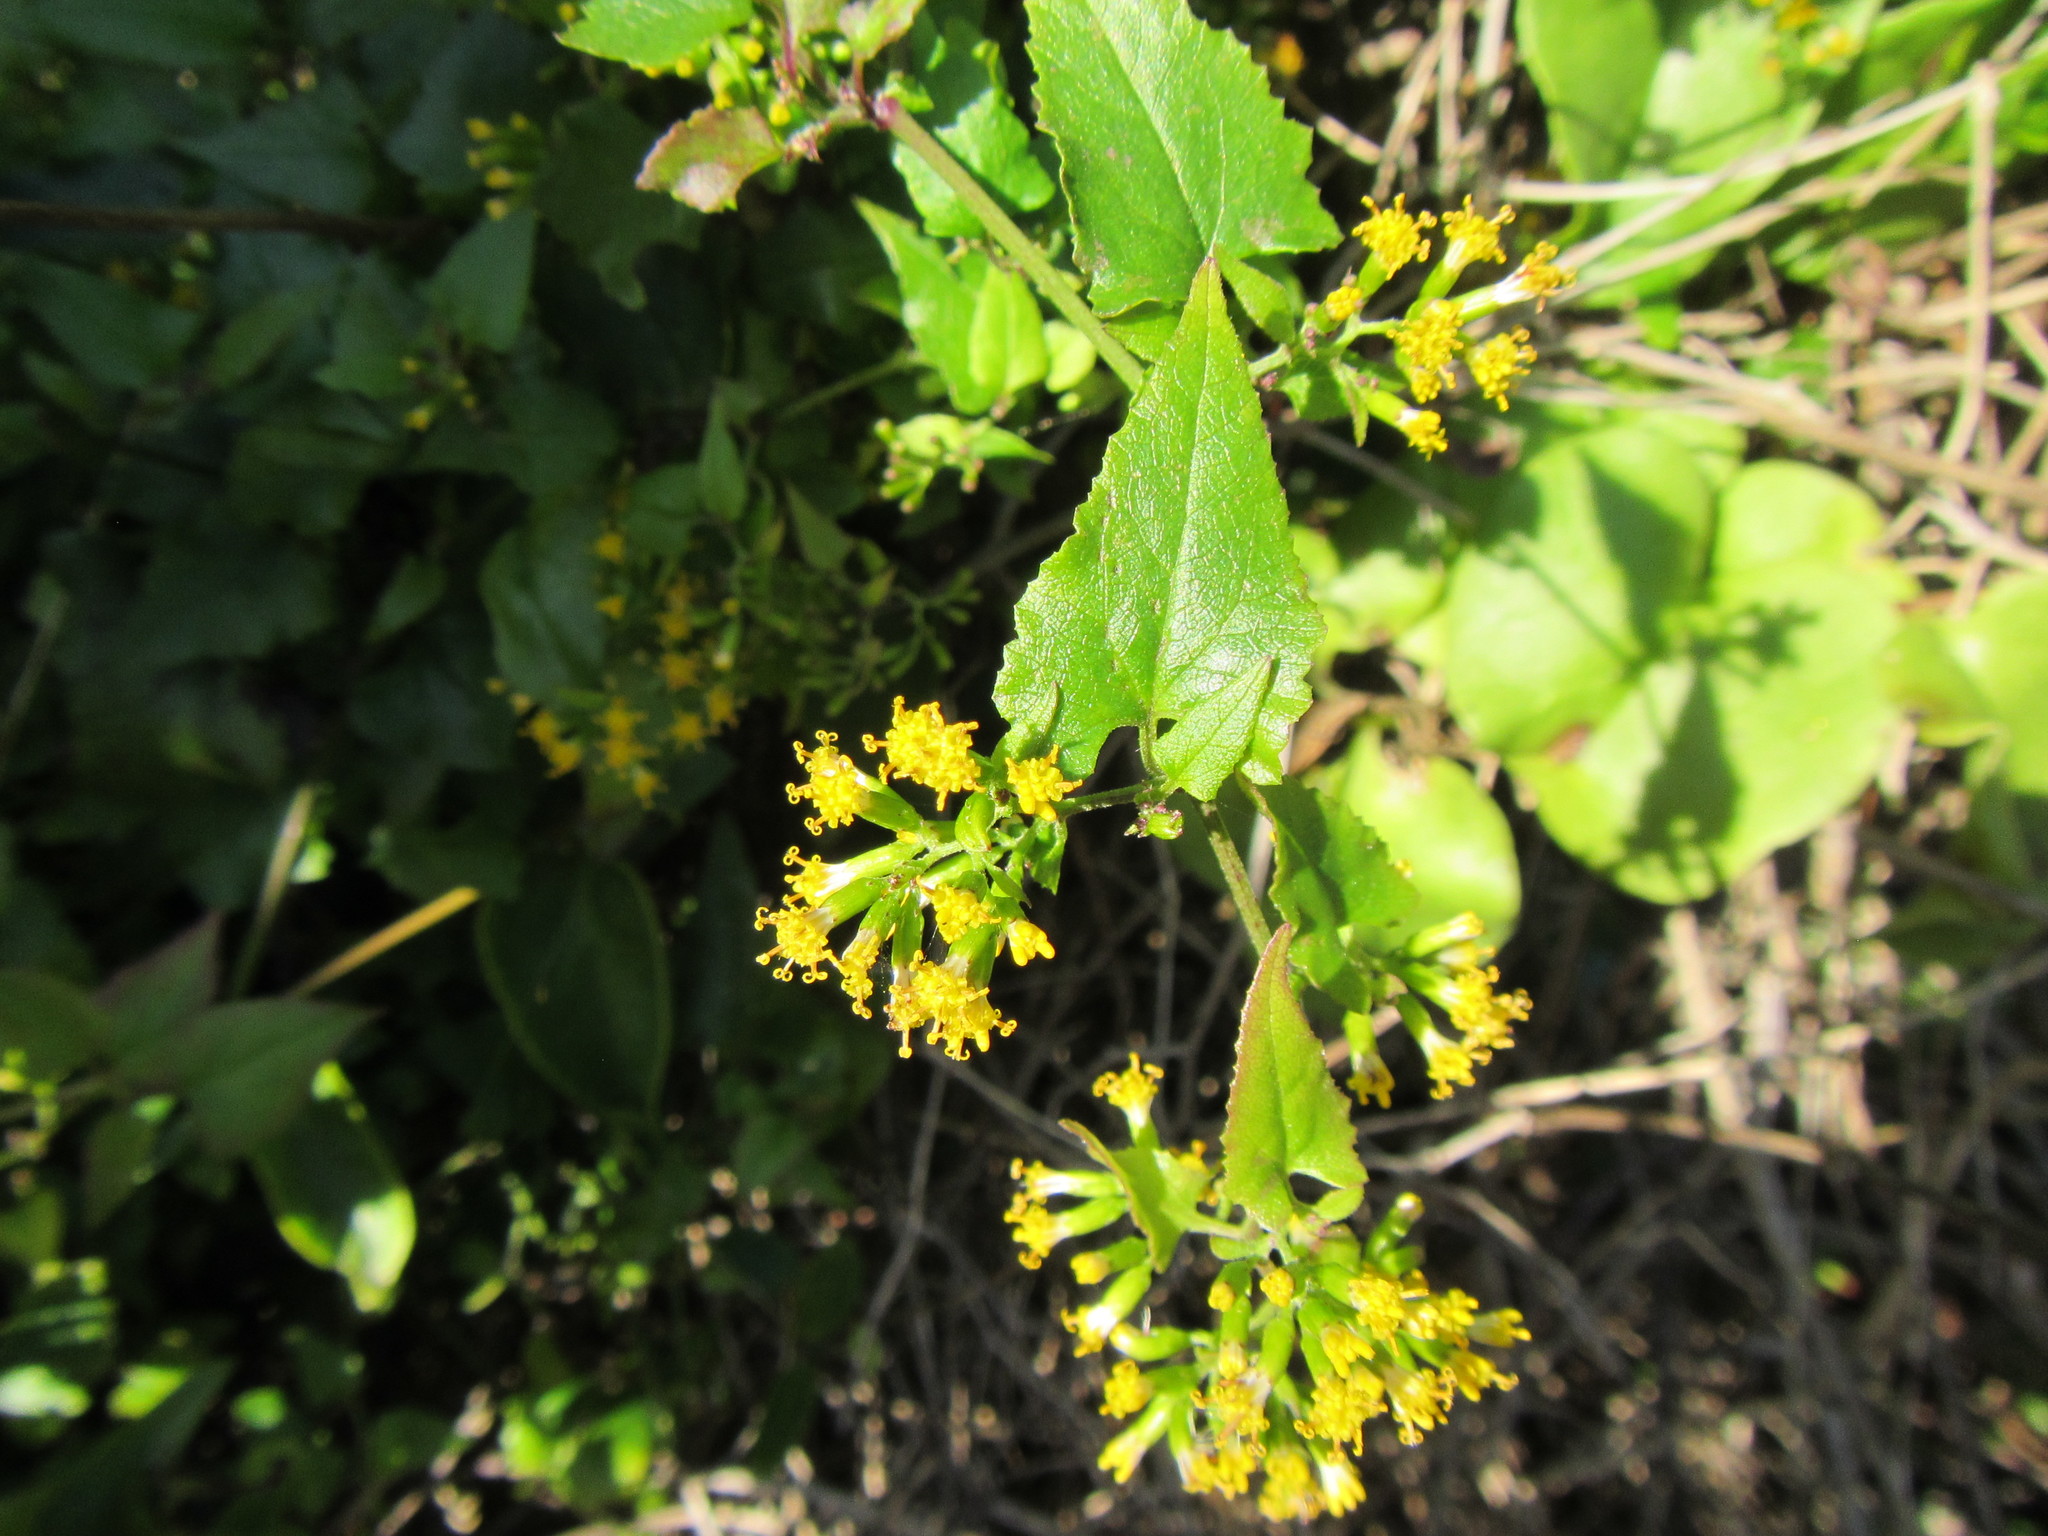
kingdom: Plantae
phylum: Tracheophyta
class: Magnoliopsida
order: Asterales
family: Asteraceae
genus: Senecio
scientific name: Senecio deltoideus
